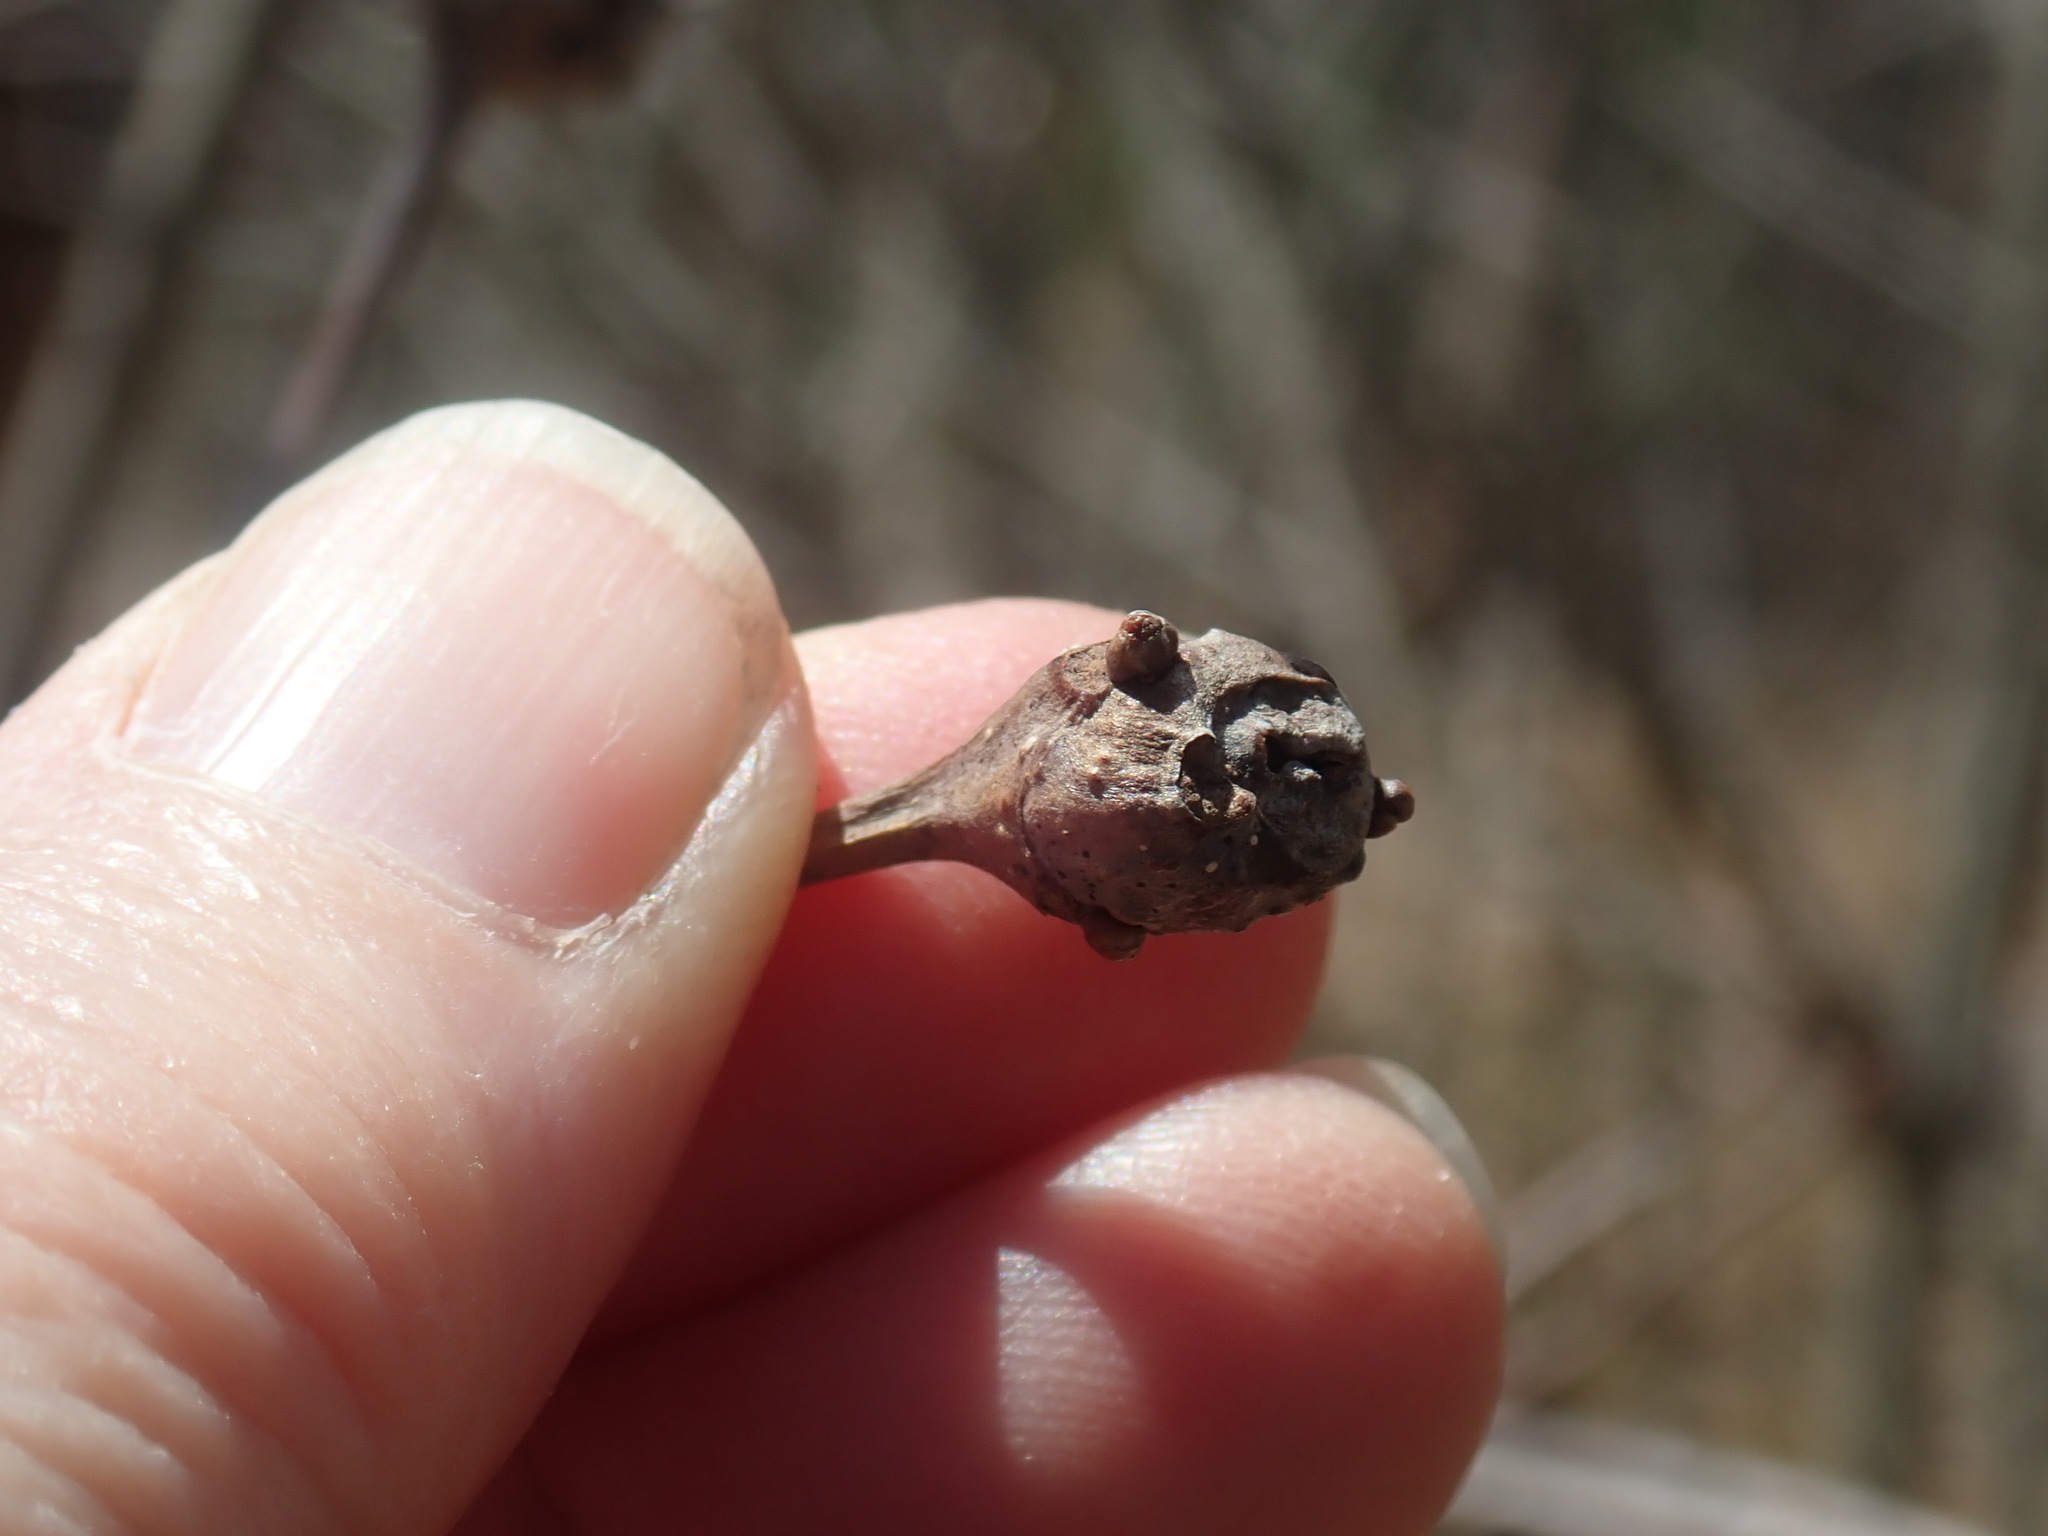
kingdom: Animalia
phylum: Arthropoda
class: Insecta
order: Hymenoptera
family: Cynipidae
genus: Callirhytis
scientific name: Callirhytis clavula
